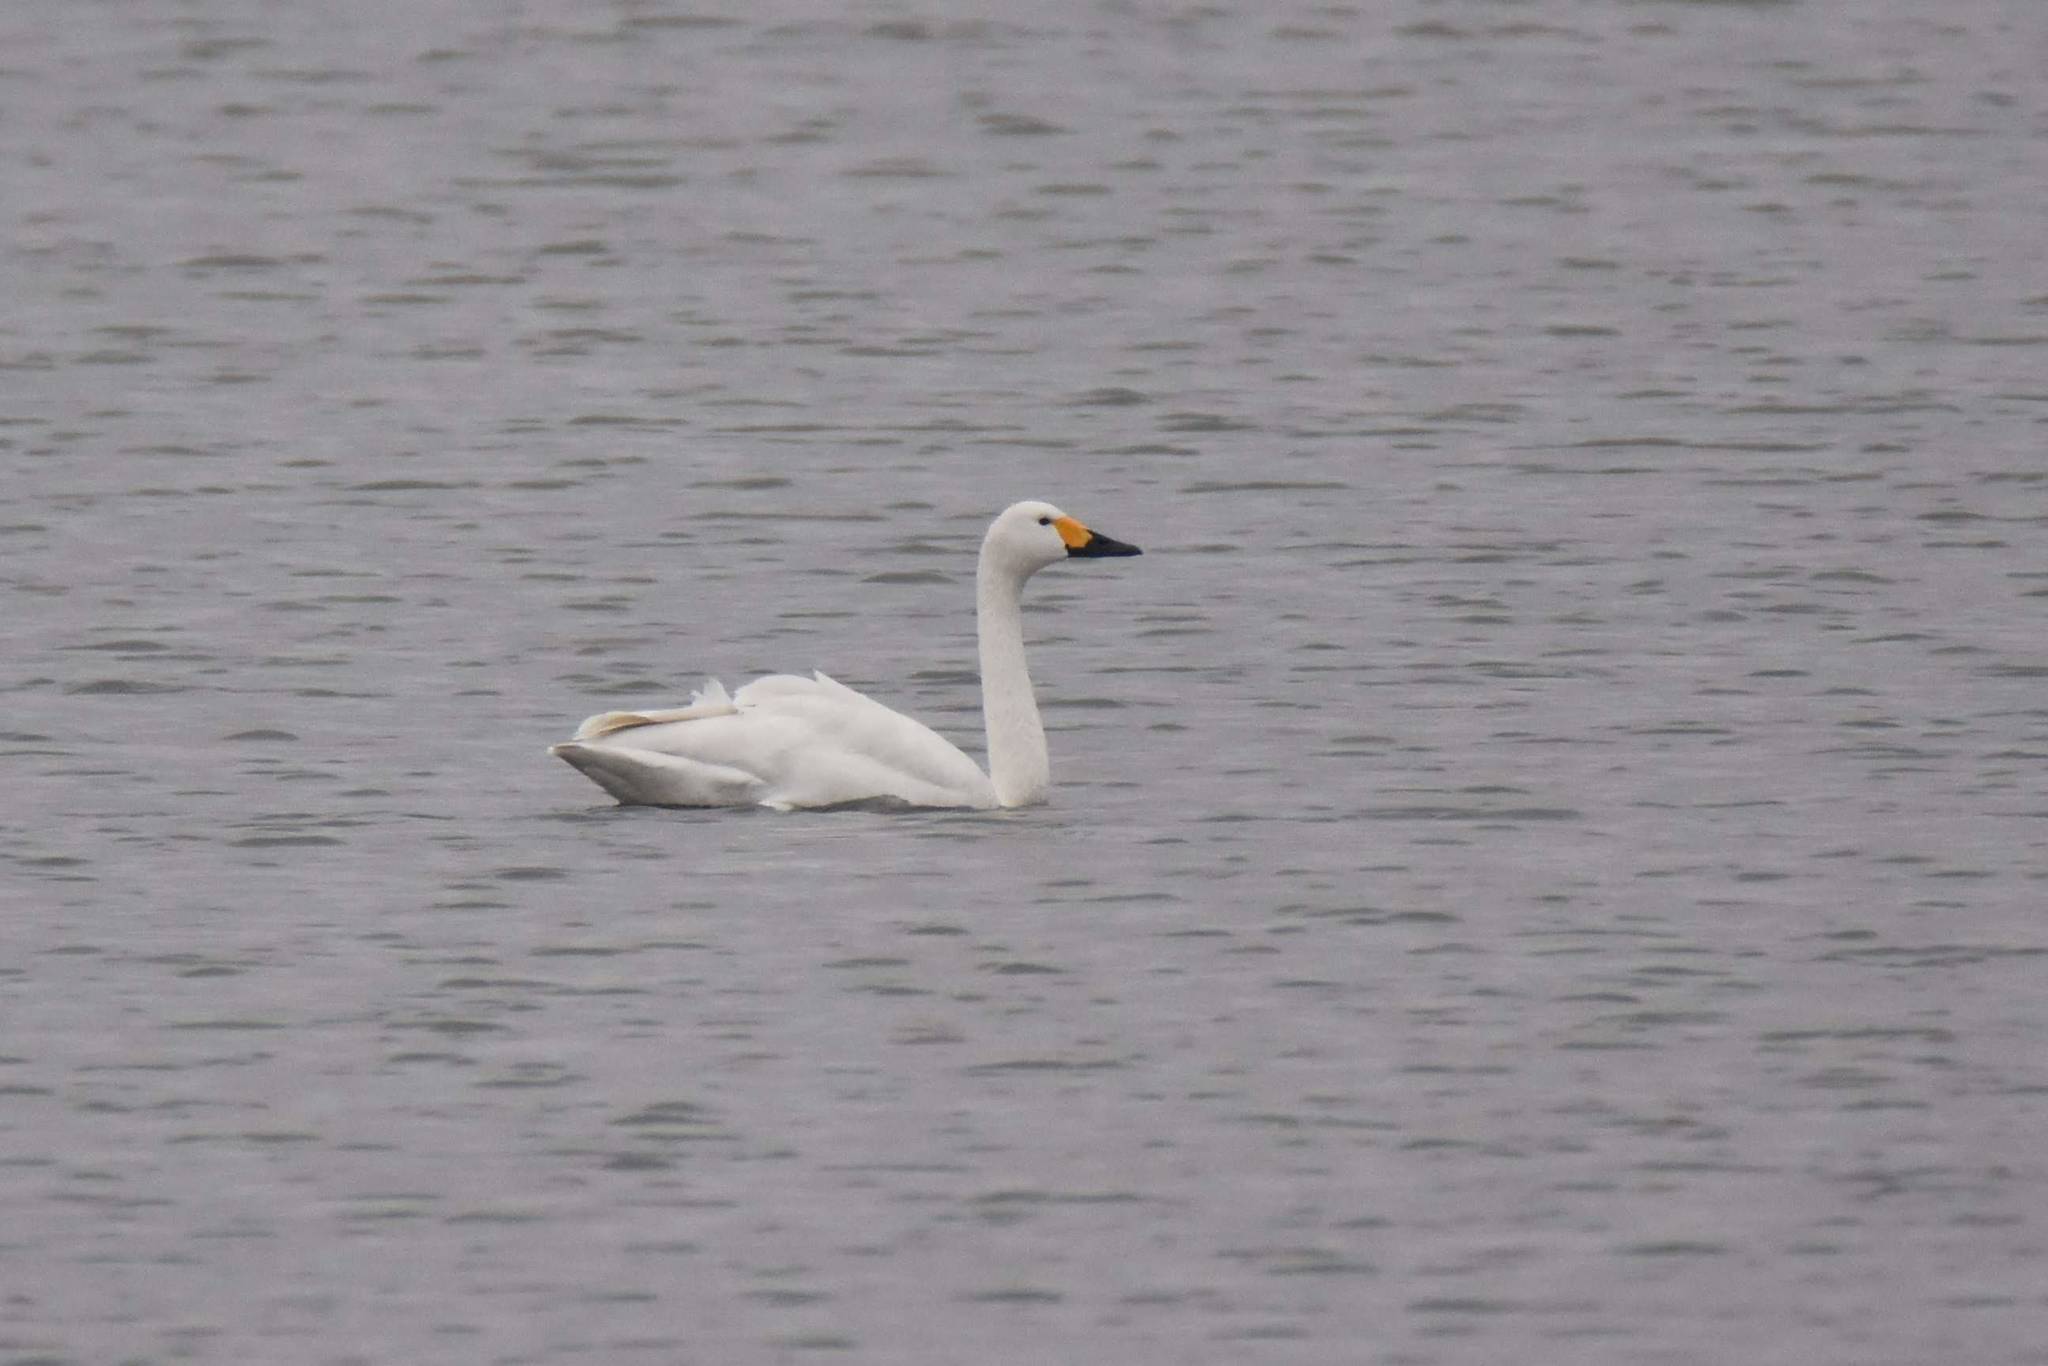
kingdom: Animalia
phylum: Chordata
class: Aves
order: Anseriformes
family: Anatidae
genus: Cygnus
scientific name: Cygnus columbianus
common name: Tundra swan
